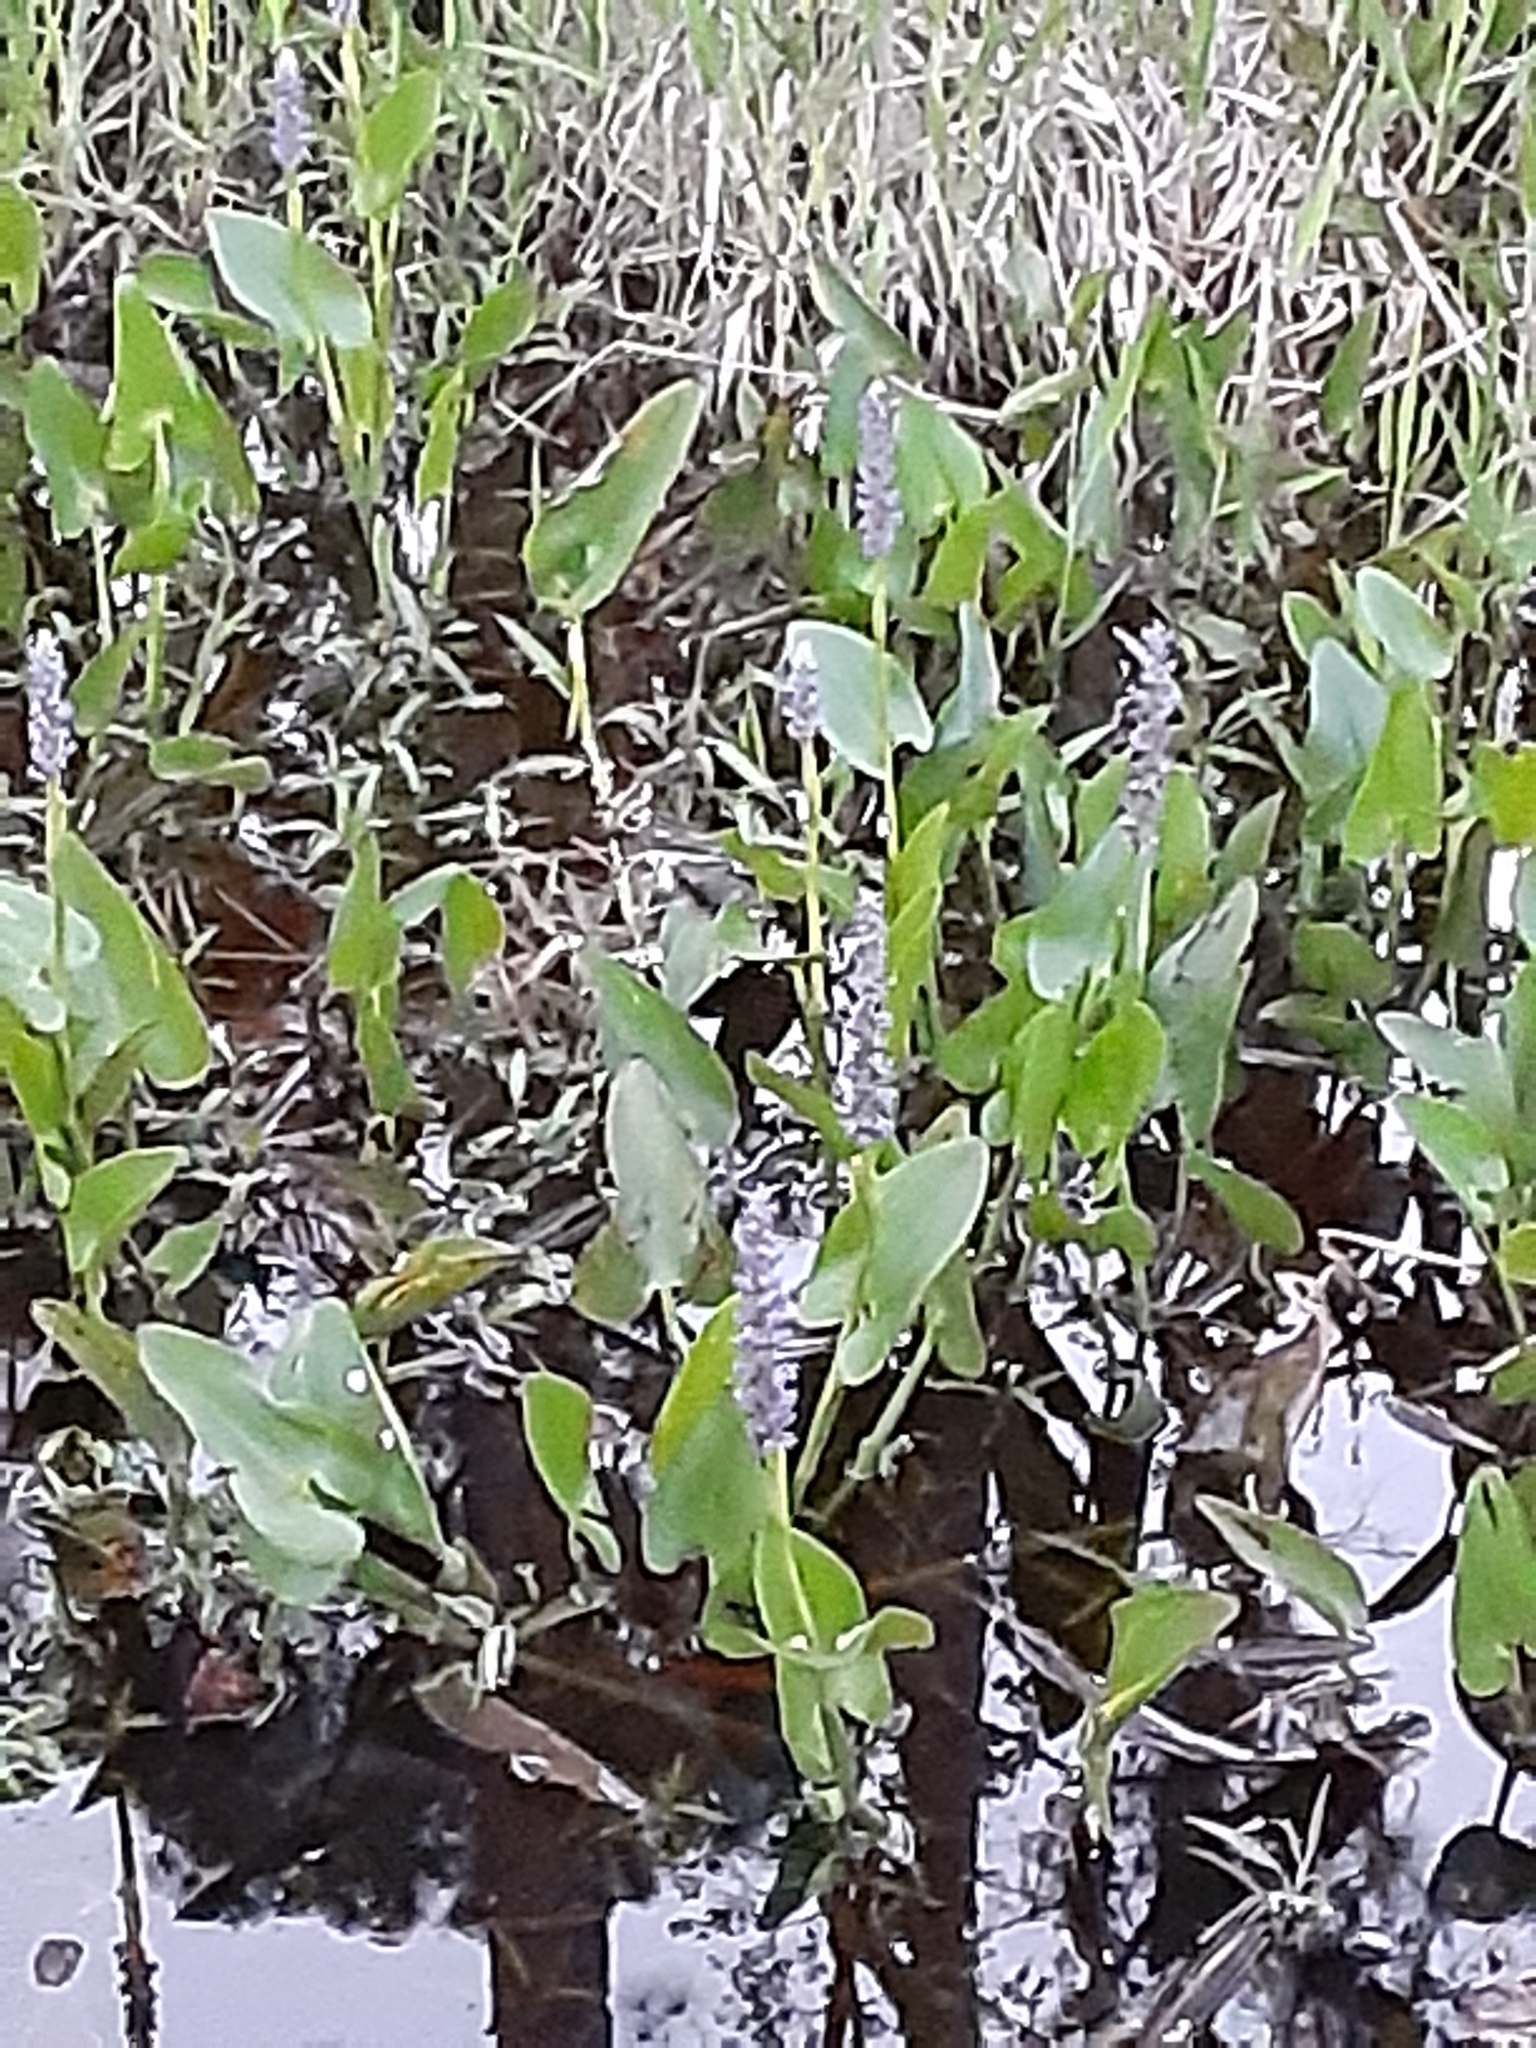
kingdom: Plantae
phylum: Tracheophyta
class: Liliopsida
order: Commelinales
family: Pontederiaceae
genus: Pontederia
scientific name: Pontederia cordata
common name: Pickerelweed
